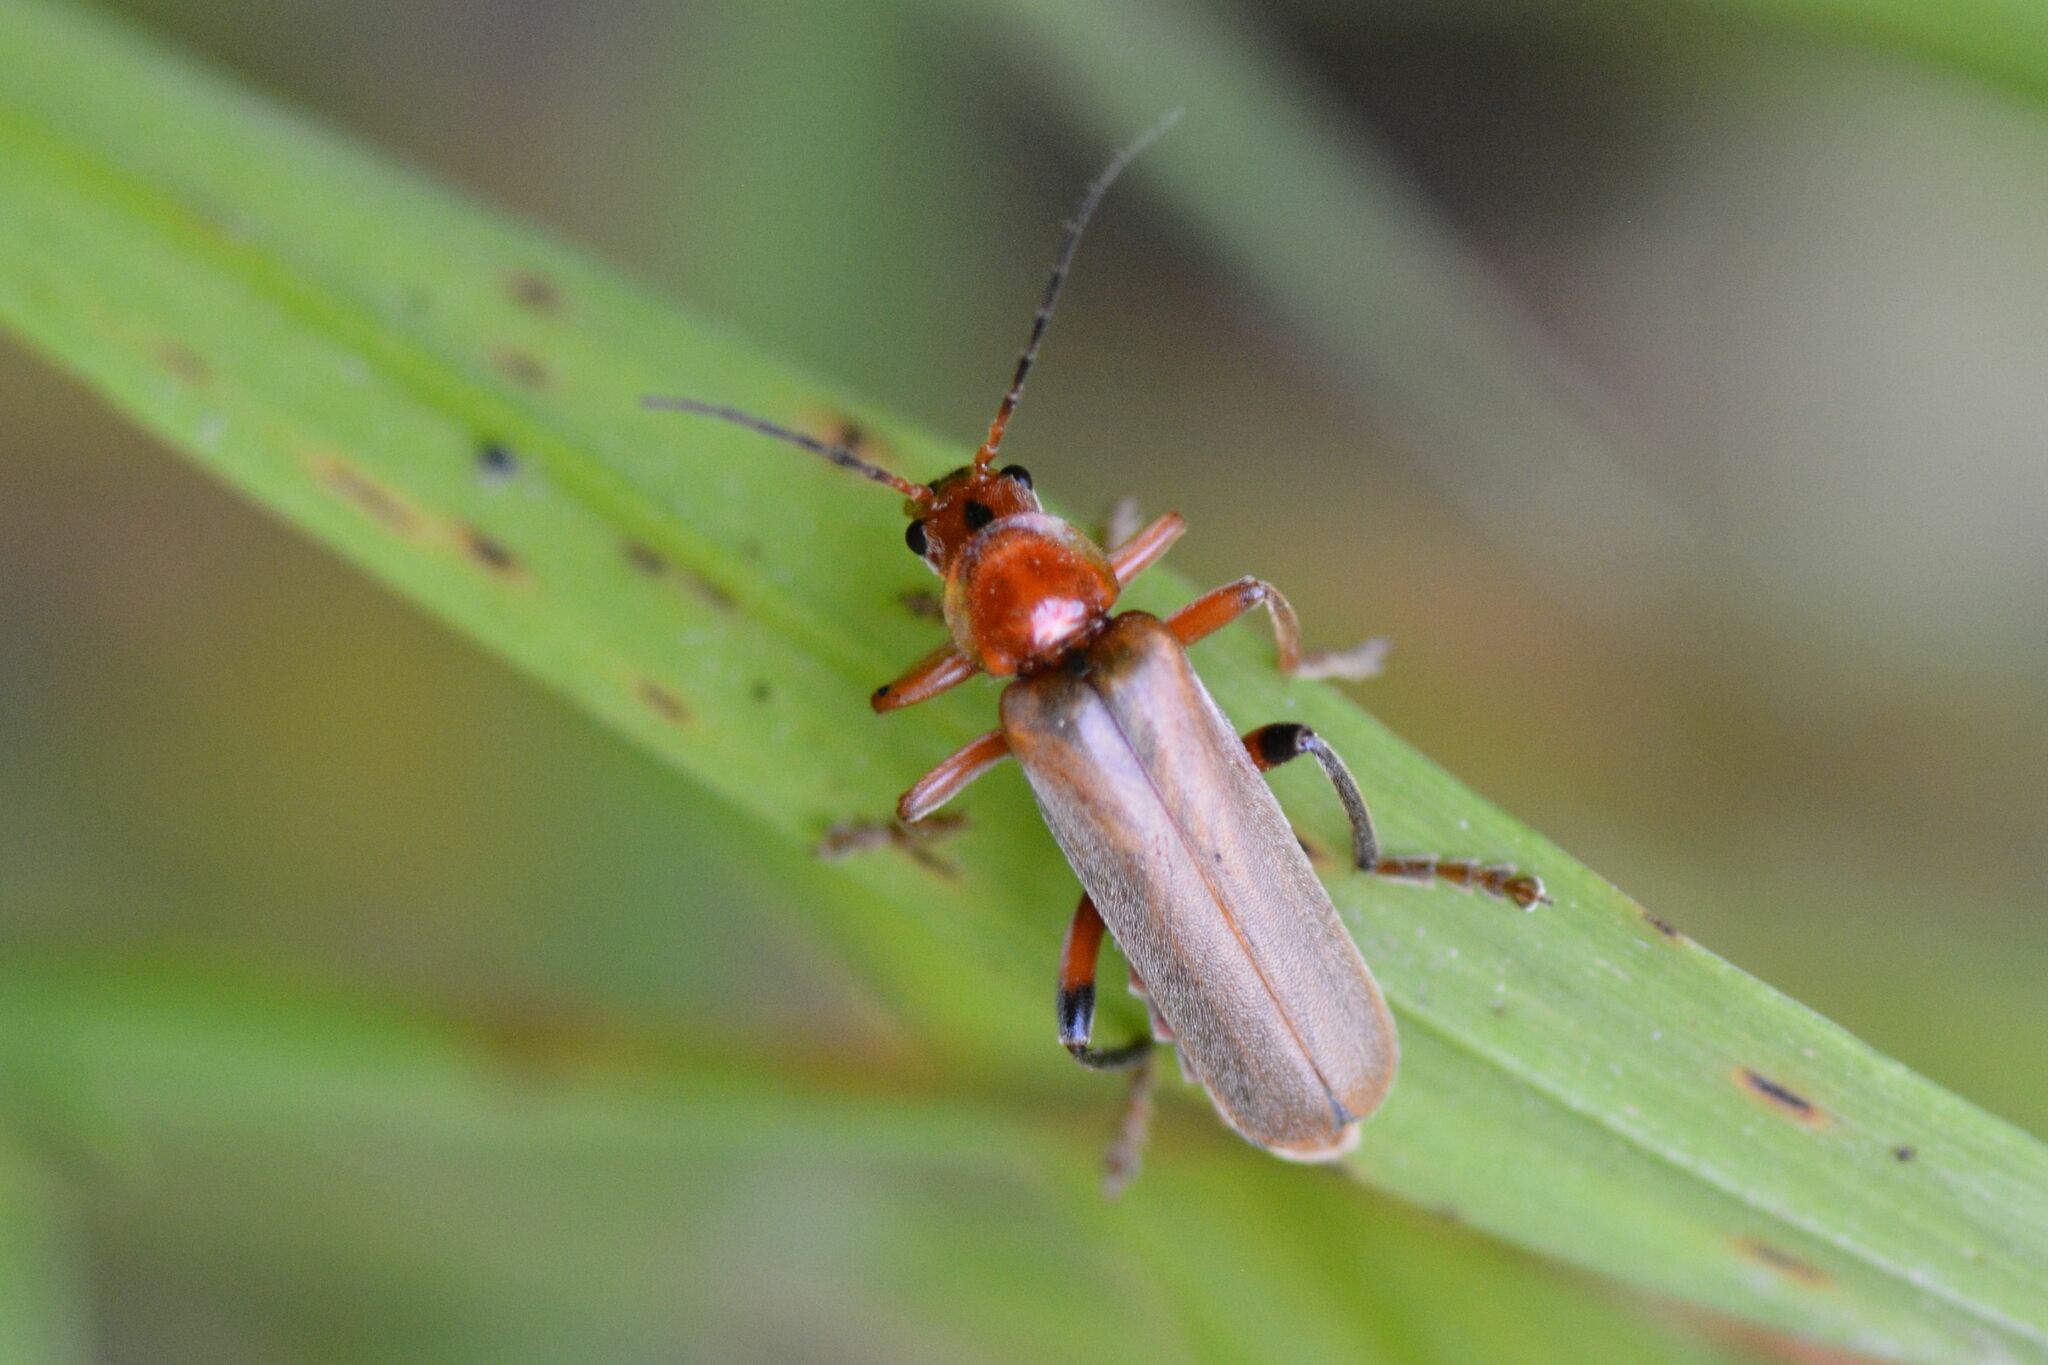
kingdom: Animalia
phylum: Arthropoda
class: Insecta
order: Coleoptera
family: Cantharidae
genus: Cantharis
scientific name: Cantharis livida
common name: Livid soldier beetle
